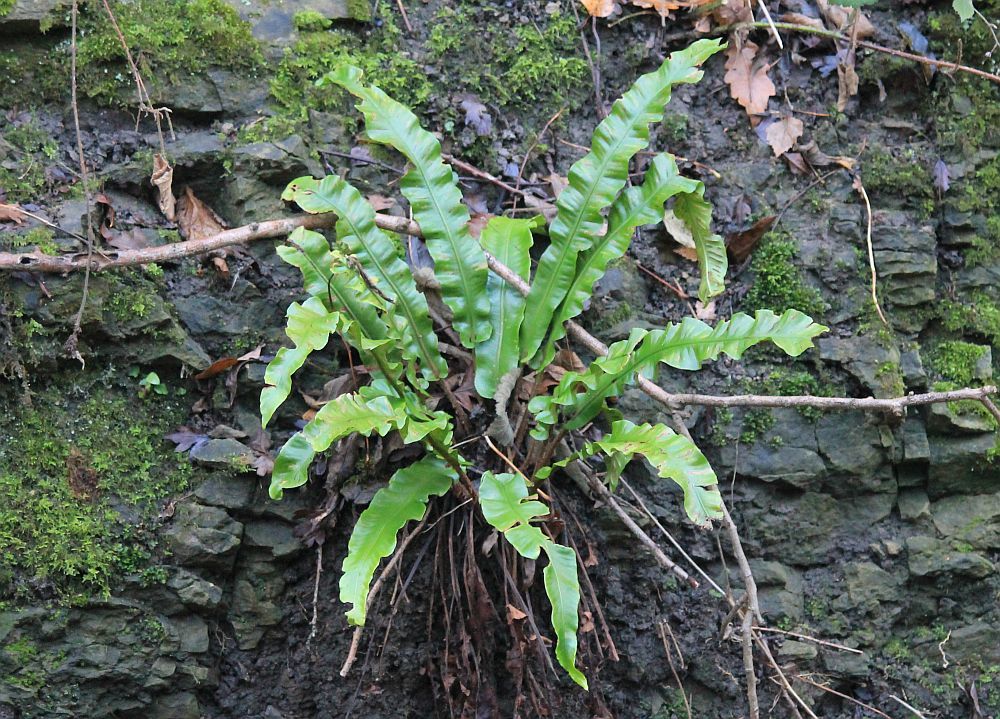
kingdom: Plantae
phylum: Tracheophyta
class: Polypodiopsida
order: Polypodiales
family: Aspleniaceae
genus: Asplenium
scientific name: Asplenium scolopendrium
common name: Hart's-tongue fern
